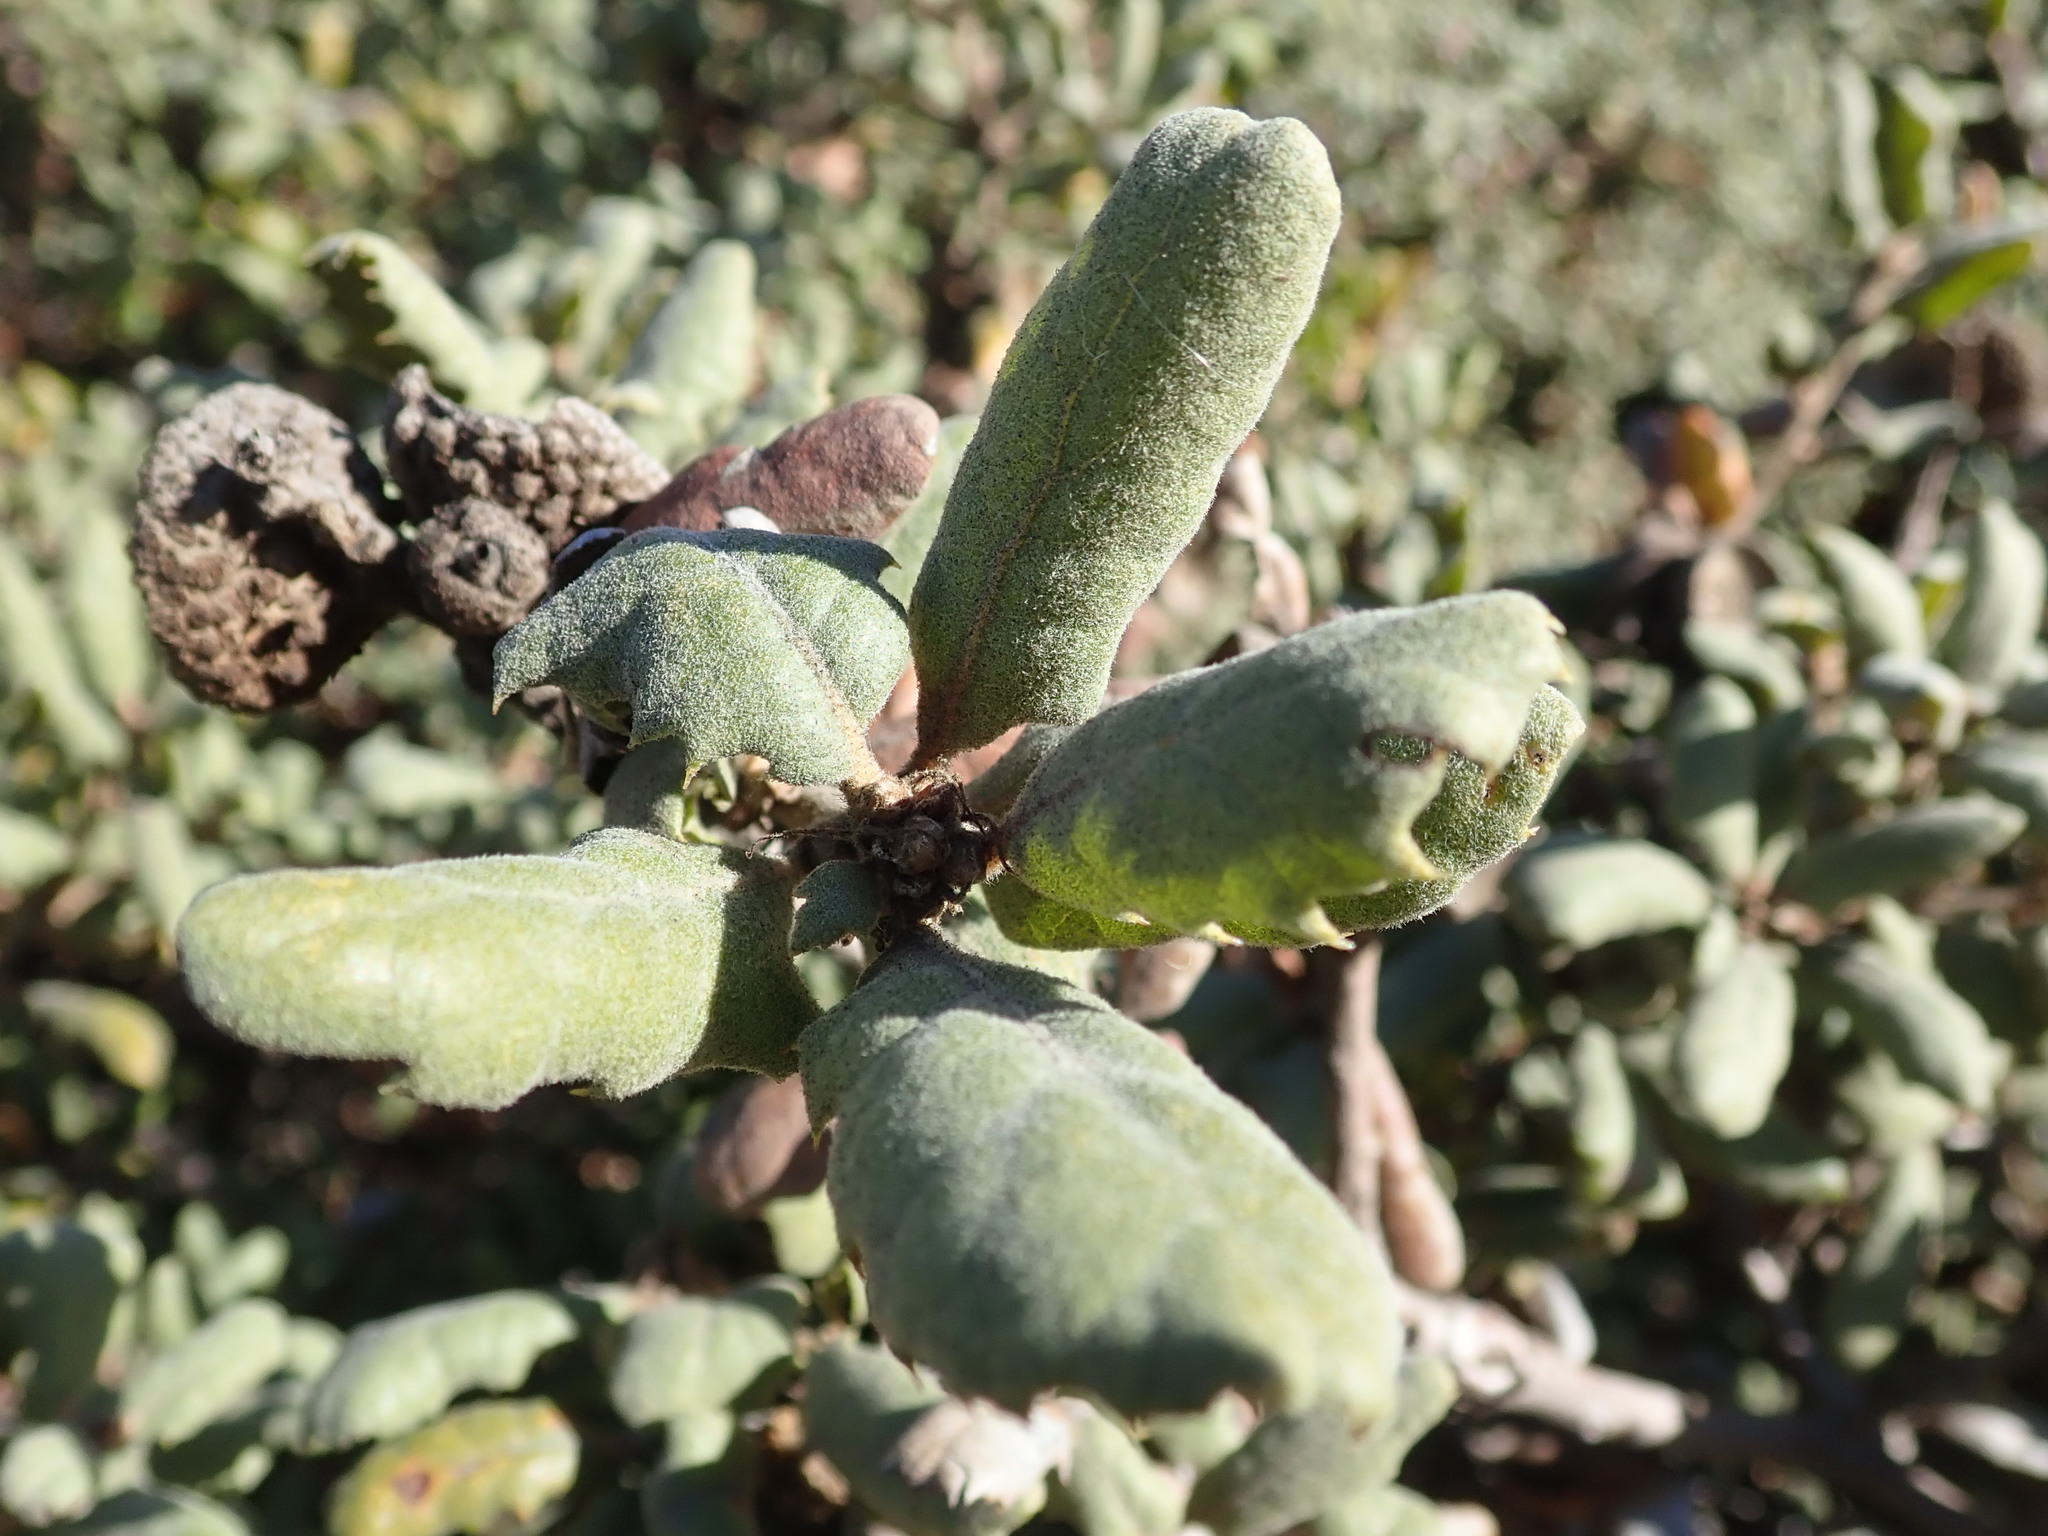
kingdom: Plantae
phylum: Tracheophyta
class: Magnoliopsida
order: Fagales
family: Fagaceae
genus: Quercus
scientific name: Quercus durata
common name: Leather oak
